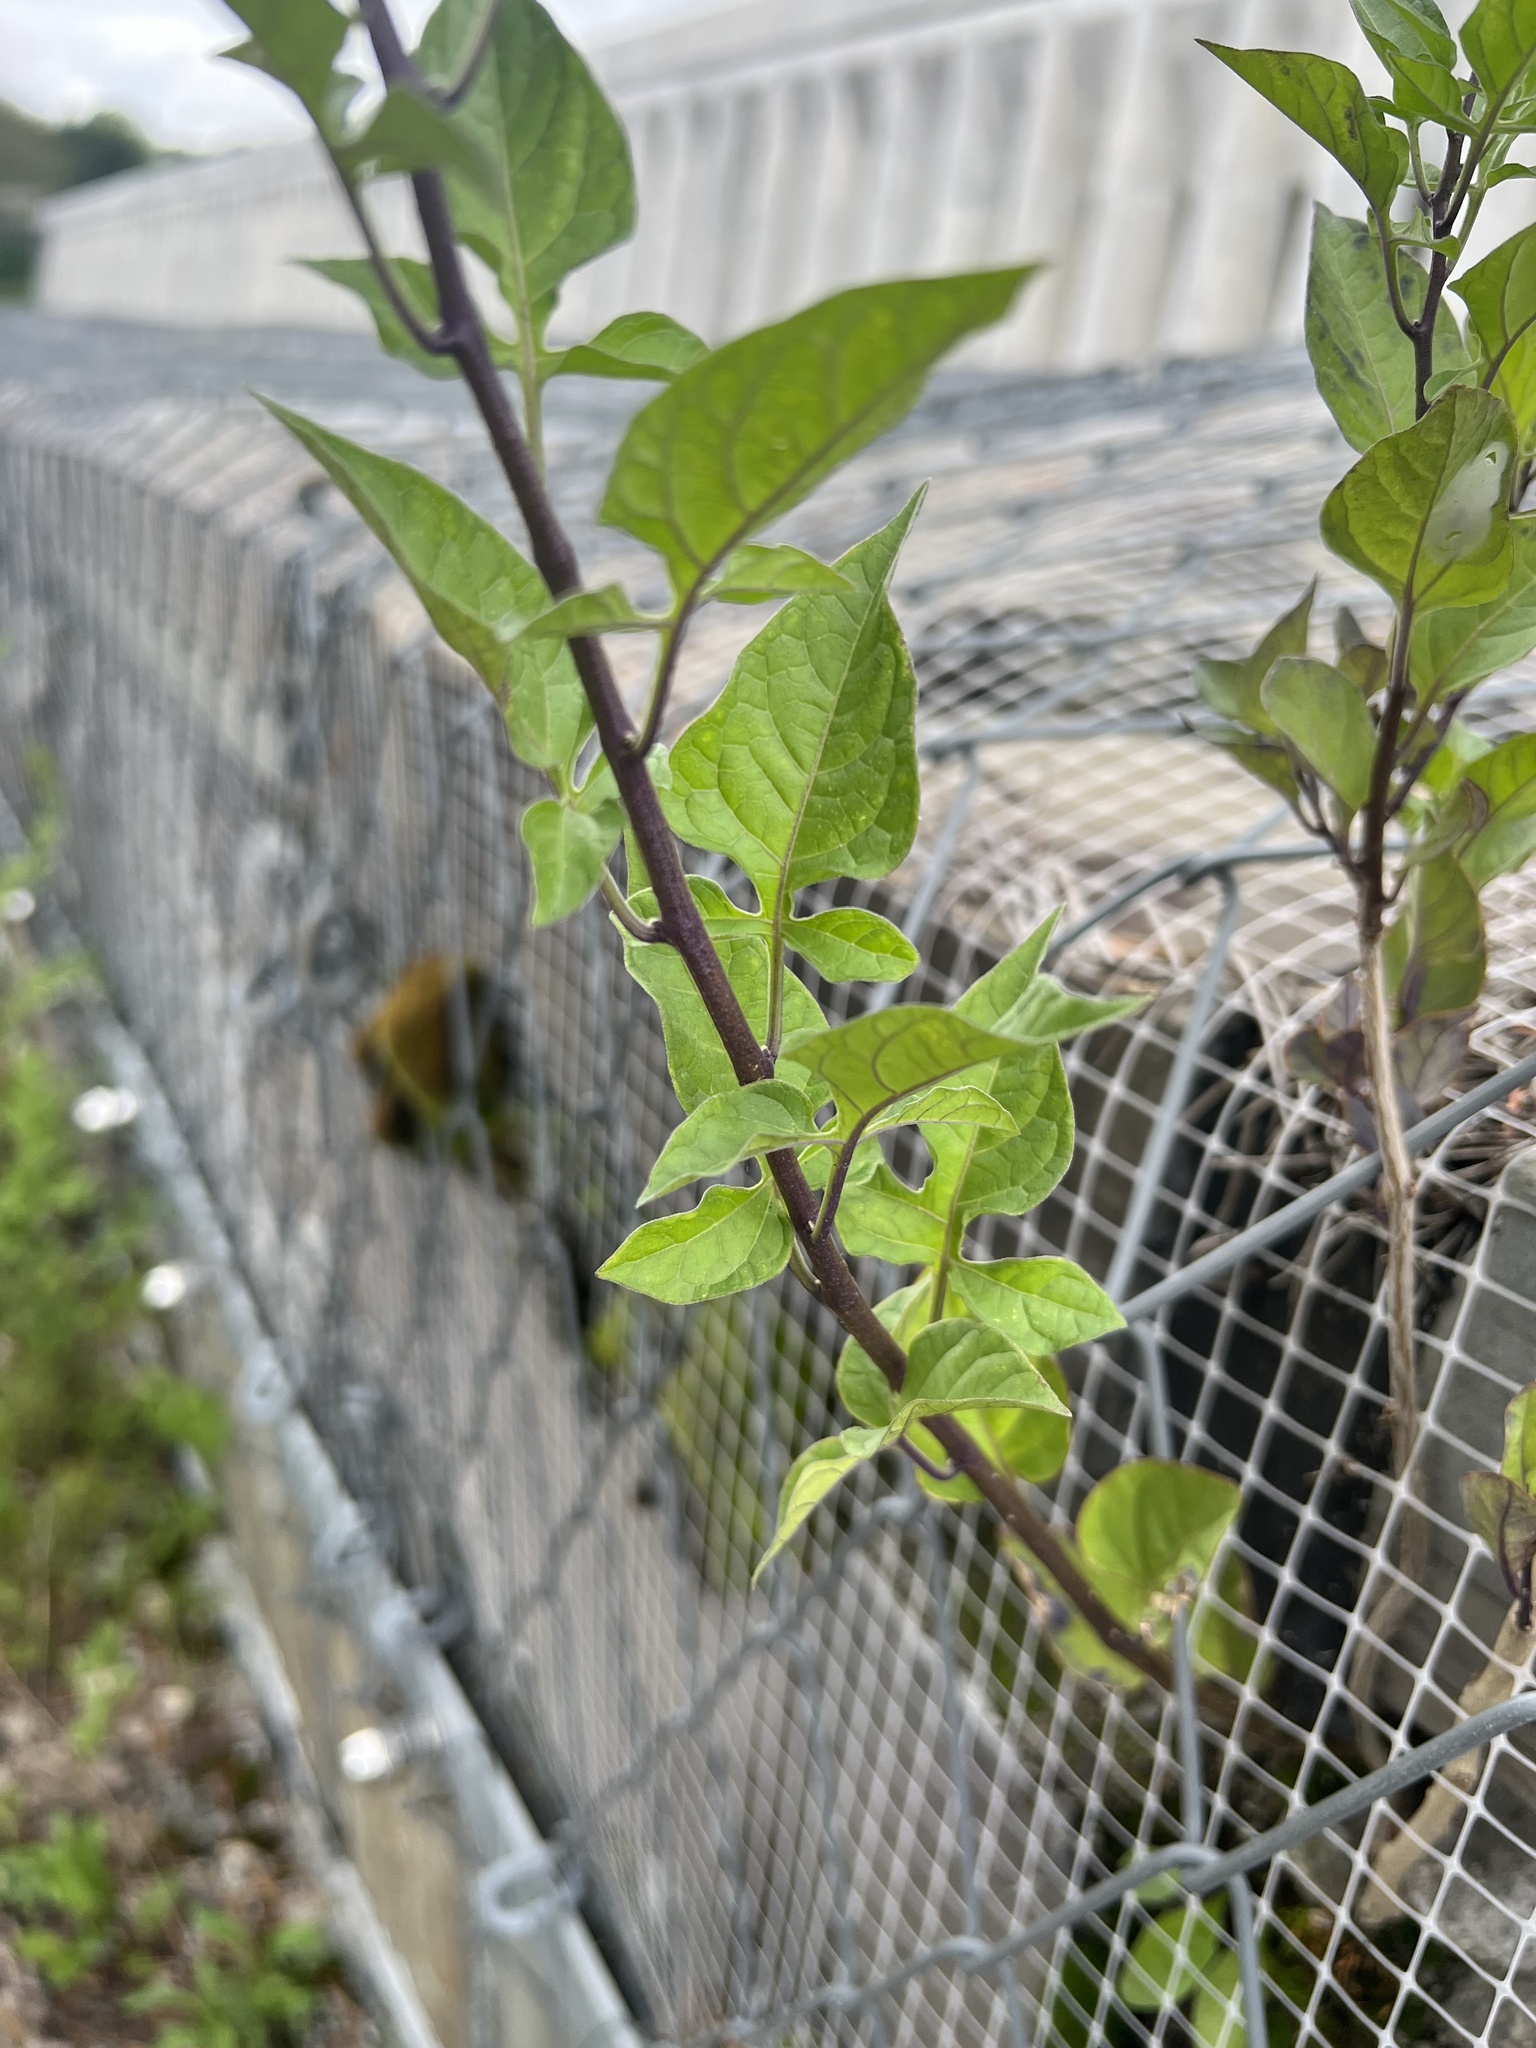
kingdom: Plantae
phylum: Tracheophyta
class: Magnoliopsida
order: Solanales
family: Solanaceae
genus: Solanum
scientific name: Solanum dulcamara
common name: Climbing nightshade
